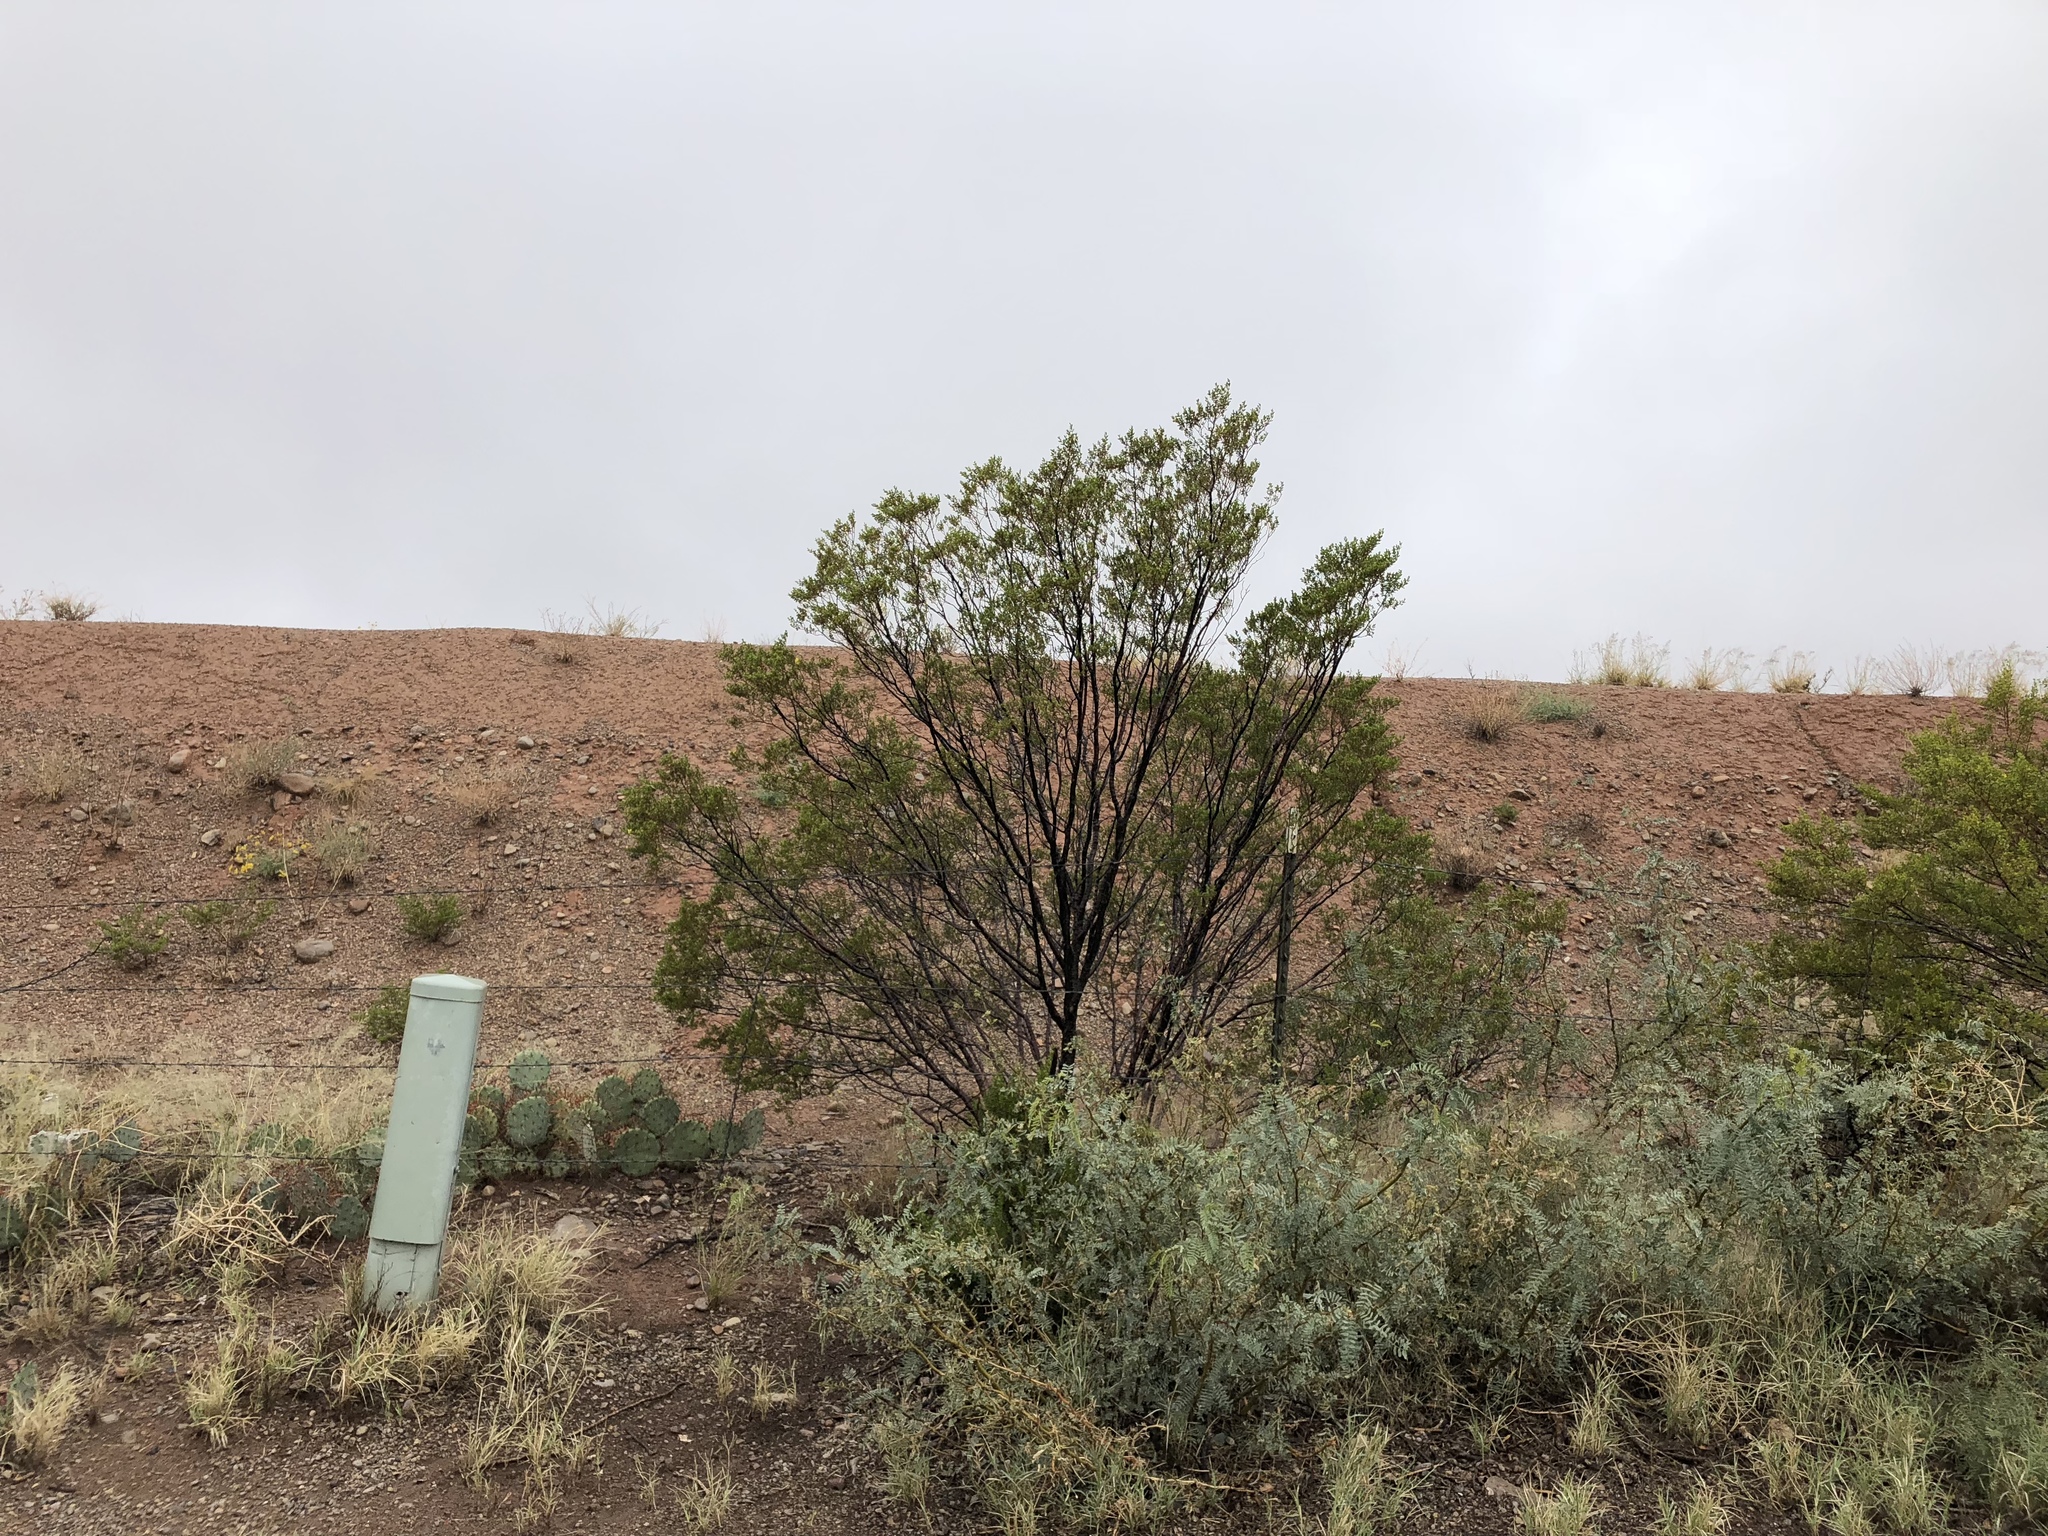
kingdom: Plantae
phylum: Tracheophyta
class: Magnoliopsida
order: Zygophyllales
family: Zygophyllaceae
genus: Larrea
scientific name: Larrea tridentata
